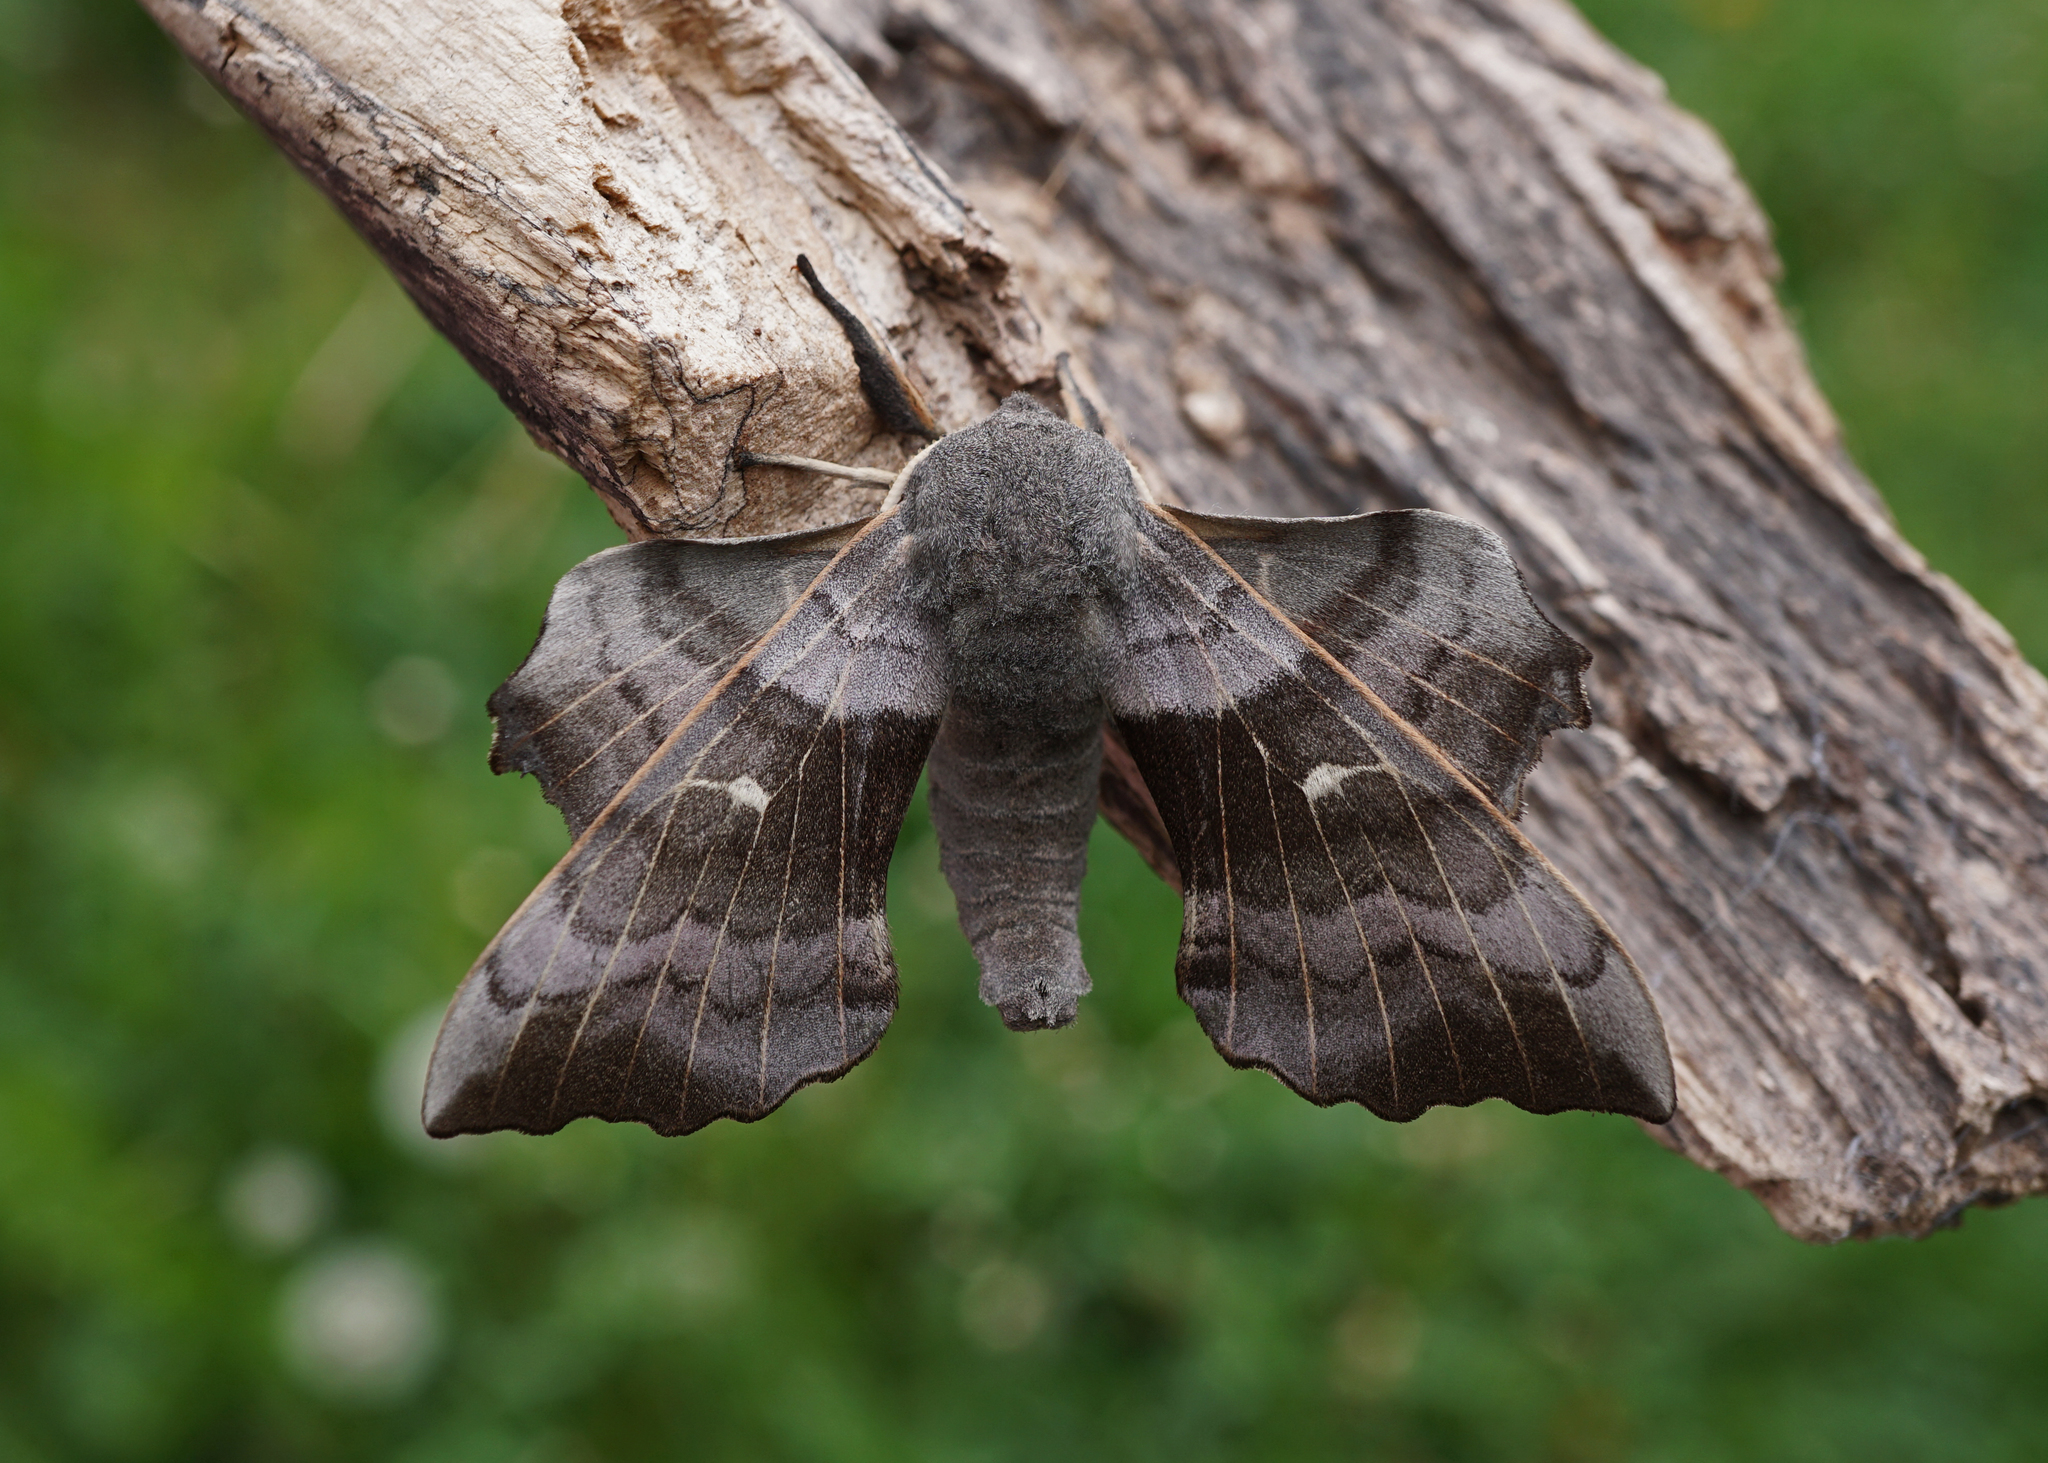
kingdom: Animalia
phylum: Arthropoda
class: Insecta
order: Lepidoptera
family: Sphingidae
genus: Laothoe
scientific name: Laothoe populi
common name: Poplar hawk-moth
